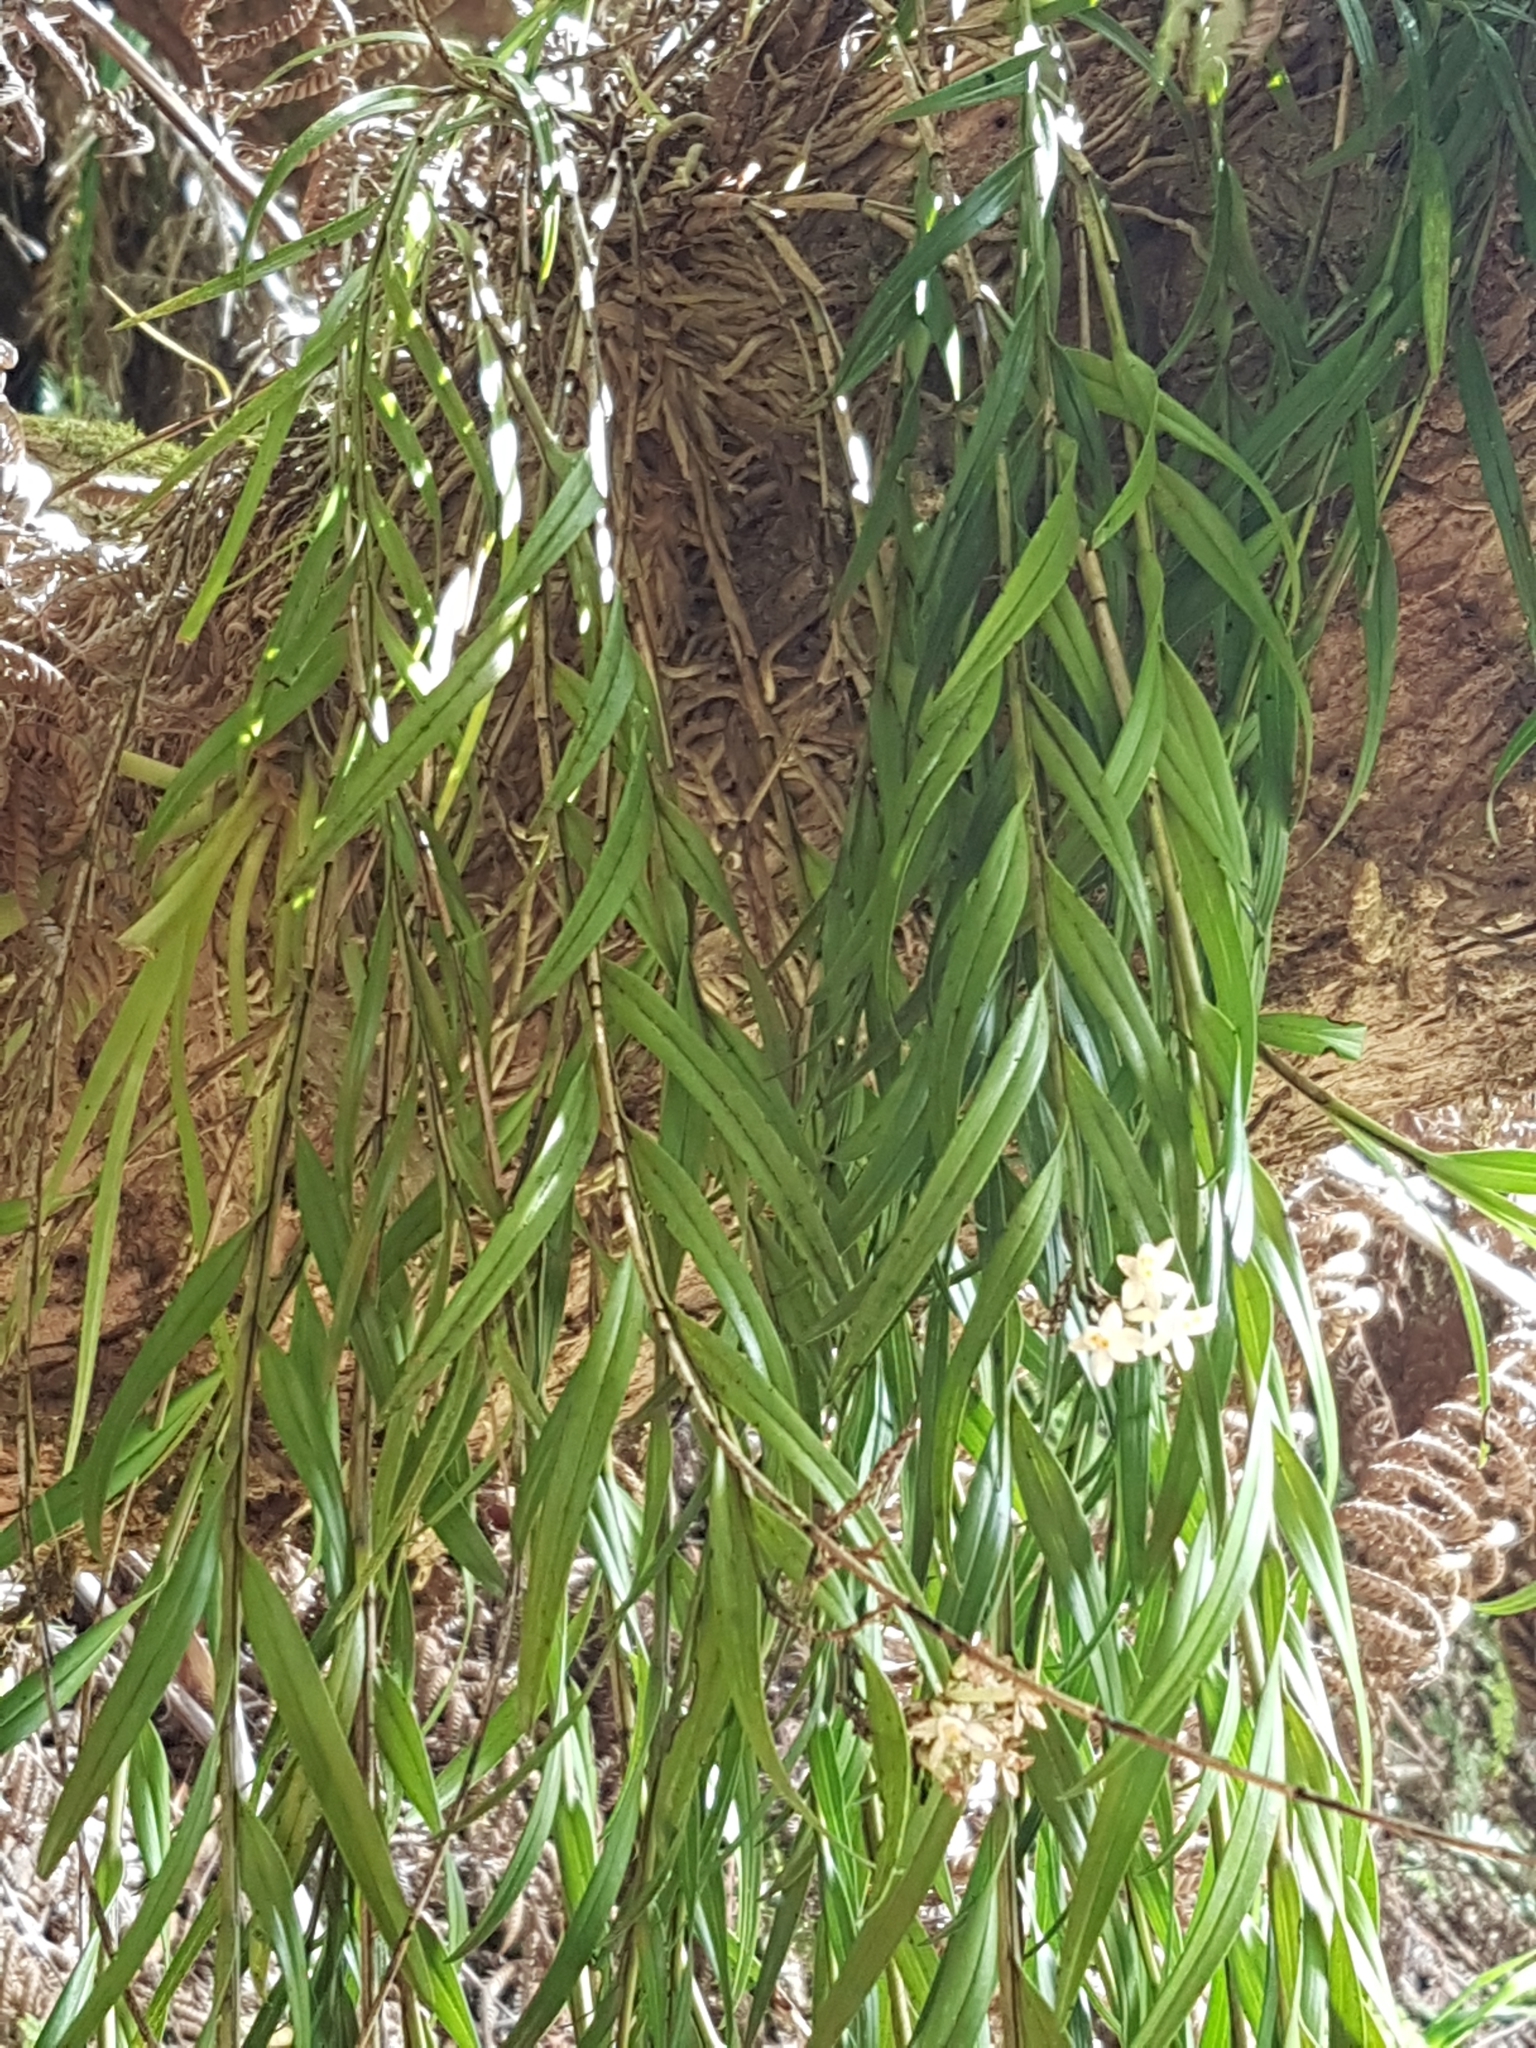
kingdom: Plantae
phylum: Tracheophyta
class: Liliopsida
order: Asparagales
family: Orchidaceae
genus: Earina
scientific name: Earina autumnalis
